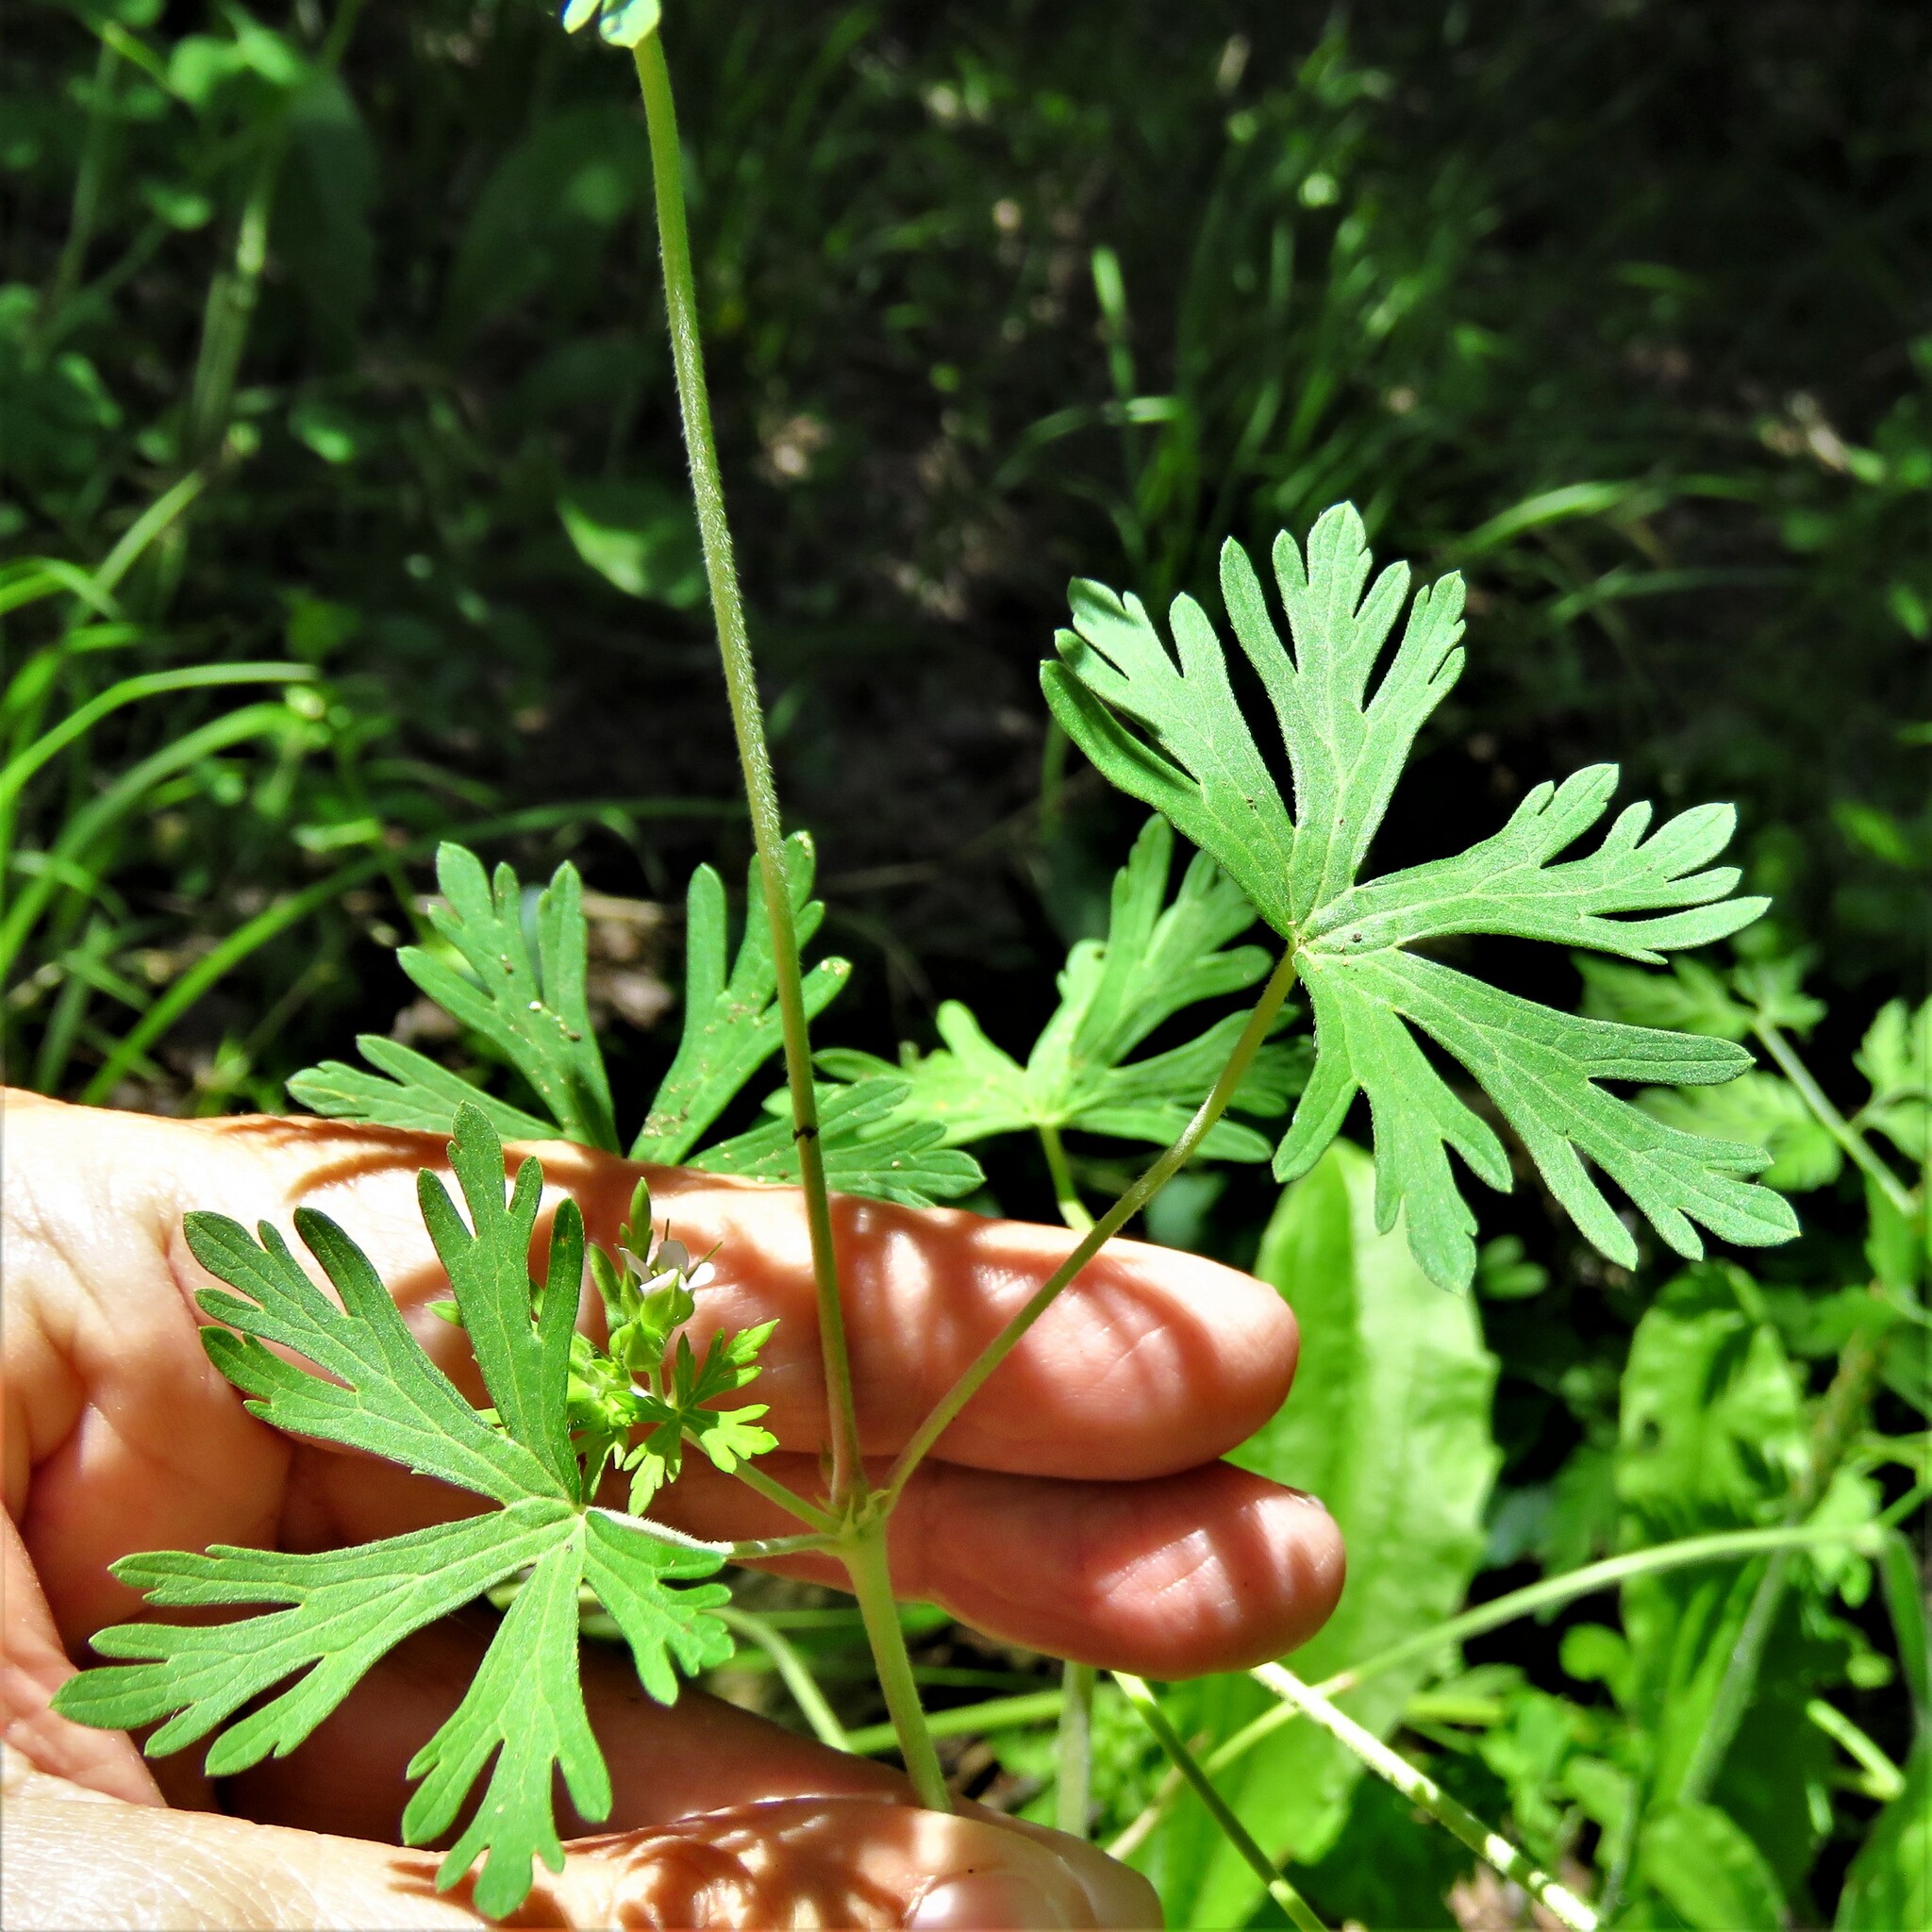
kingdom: Plantae
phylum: Tracheophyta
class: Magnoliopsida
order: Geraniales
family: Geraniaceae
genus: Geranium
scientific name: Geranium carolinianum
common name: Carolina crane's-bill
